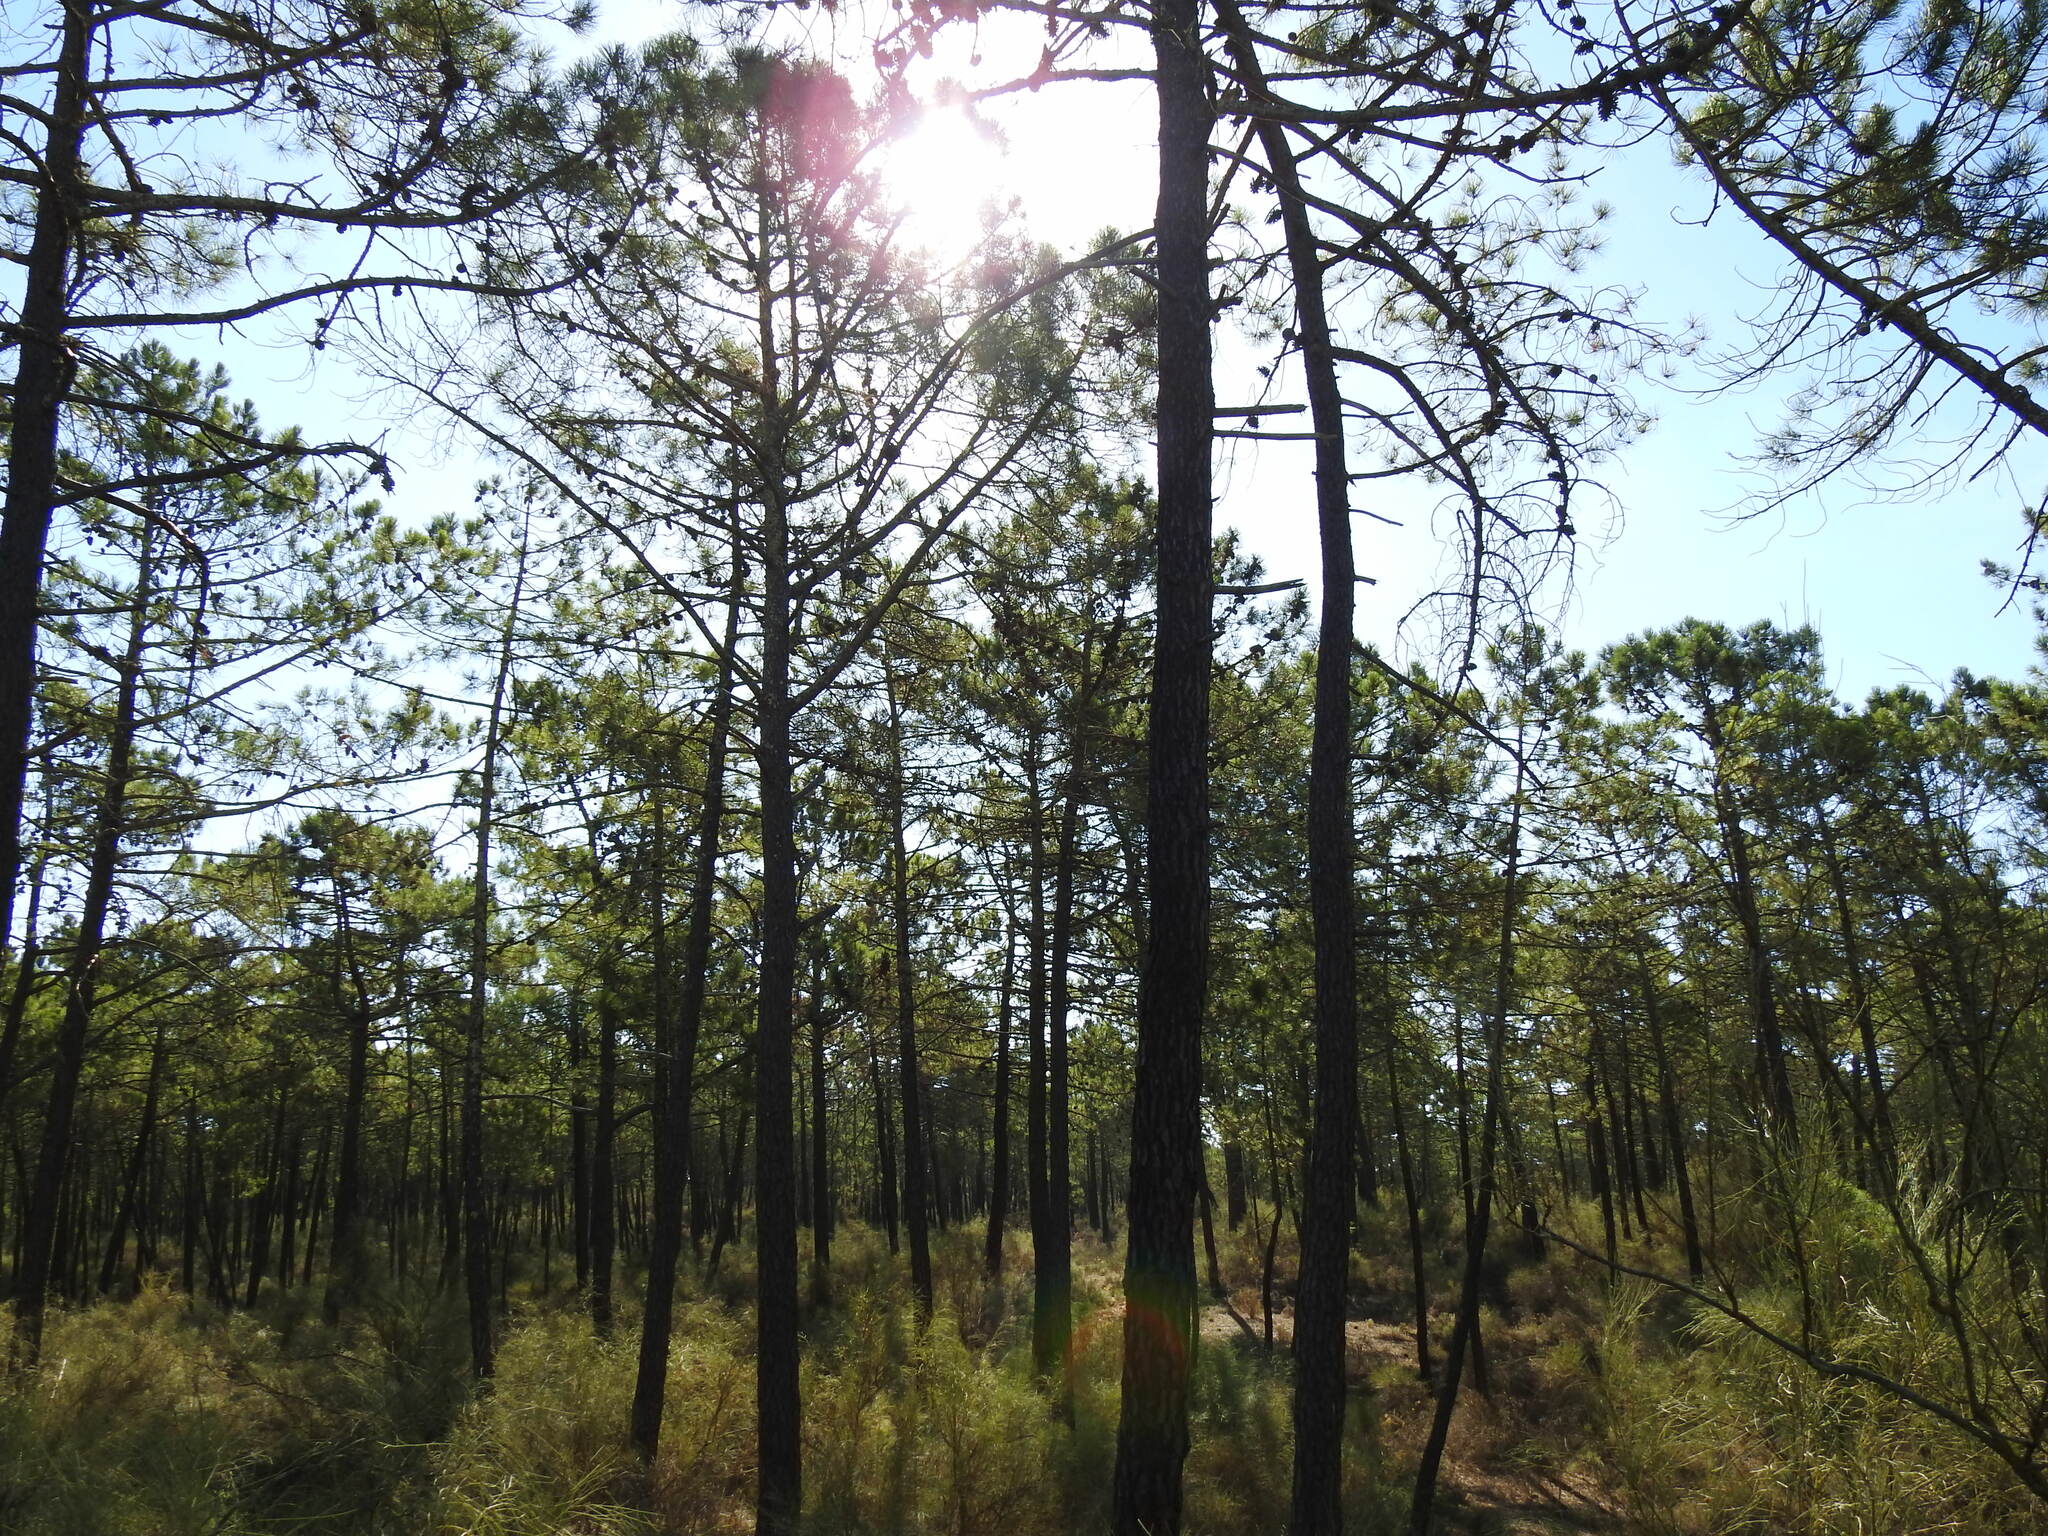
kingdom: Plantae
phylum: Tracheophyta
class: Pinopsida
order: Pinales
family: Pinaceae
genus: Pinus
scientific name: Pinus pinaster
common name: Maritime pine
